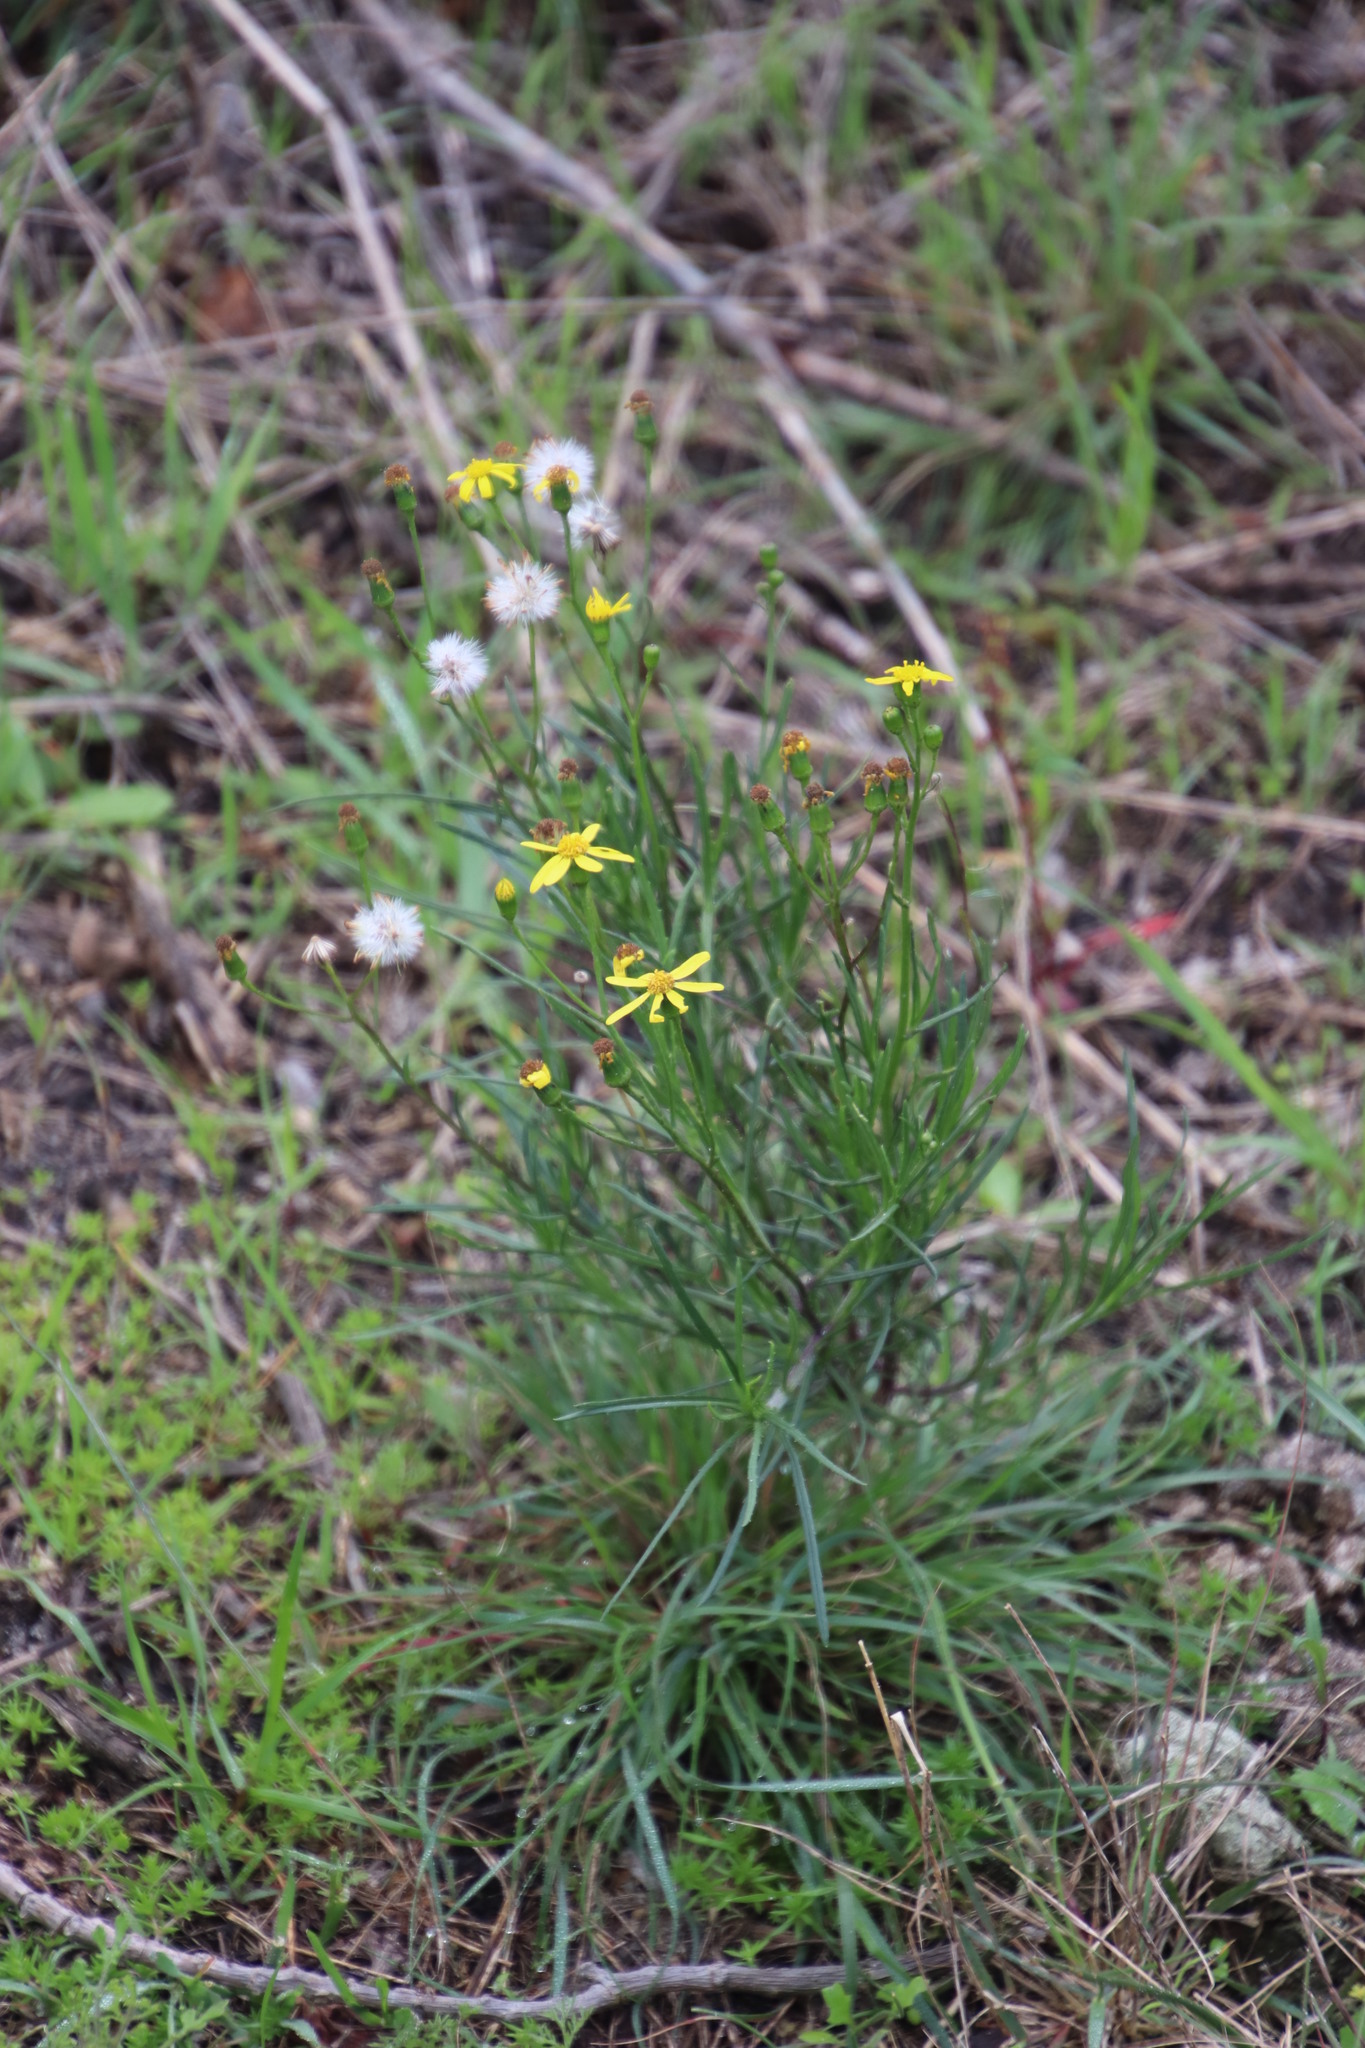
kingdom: Plantae
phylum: Tracheophyta
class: Magnoliopsida
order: Asterales
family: Asteraceae
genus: Senecio
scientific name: Senecio burchellii
